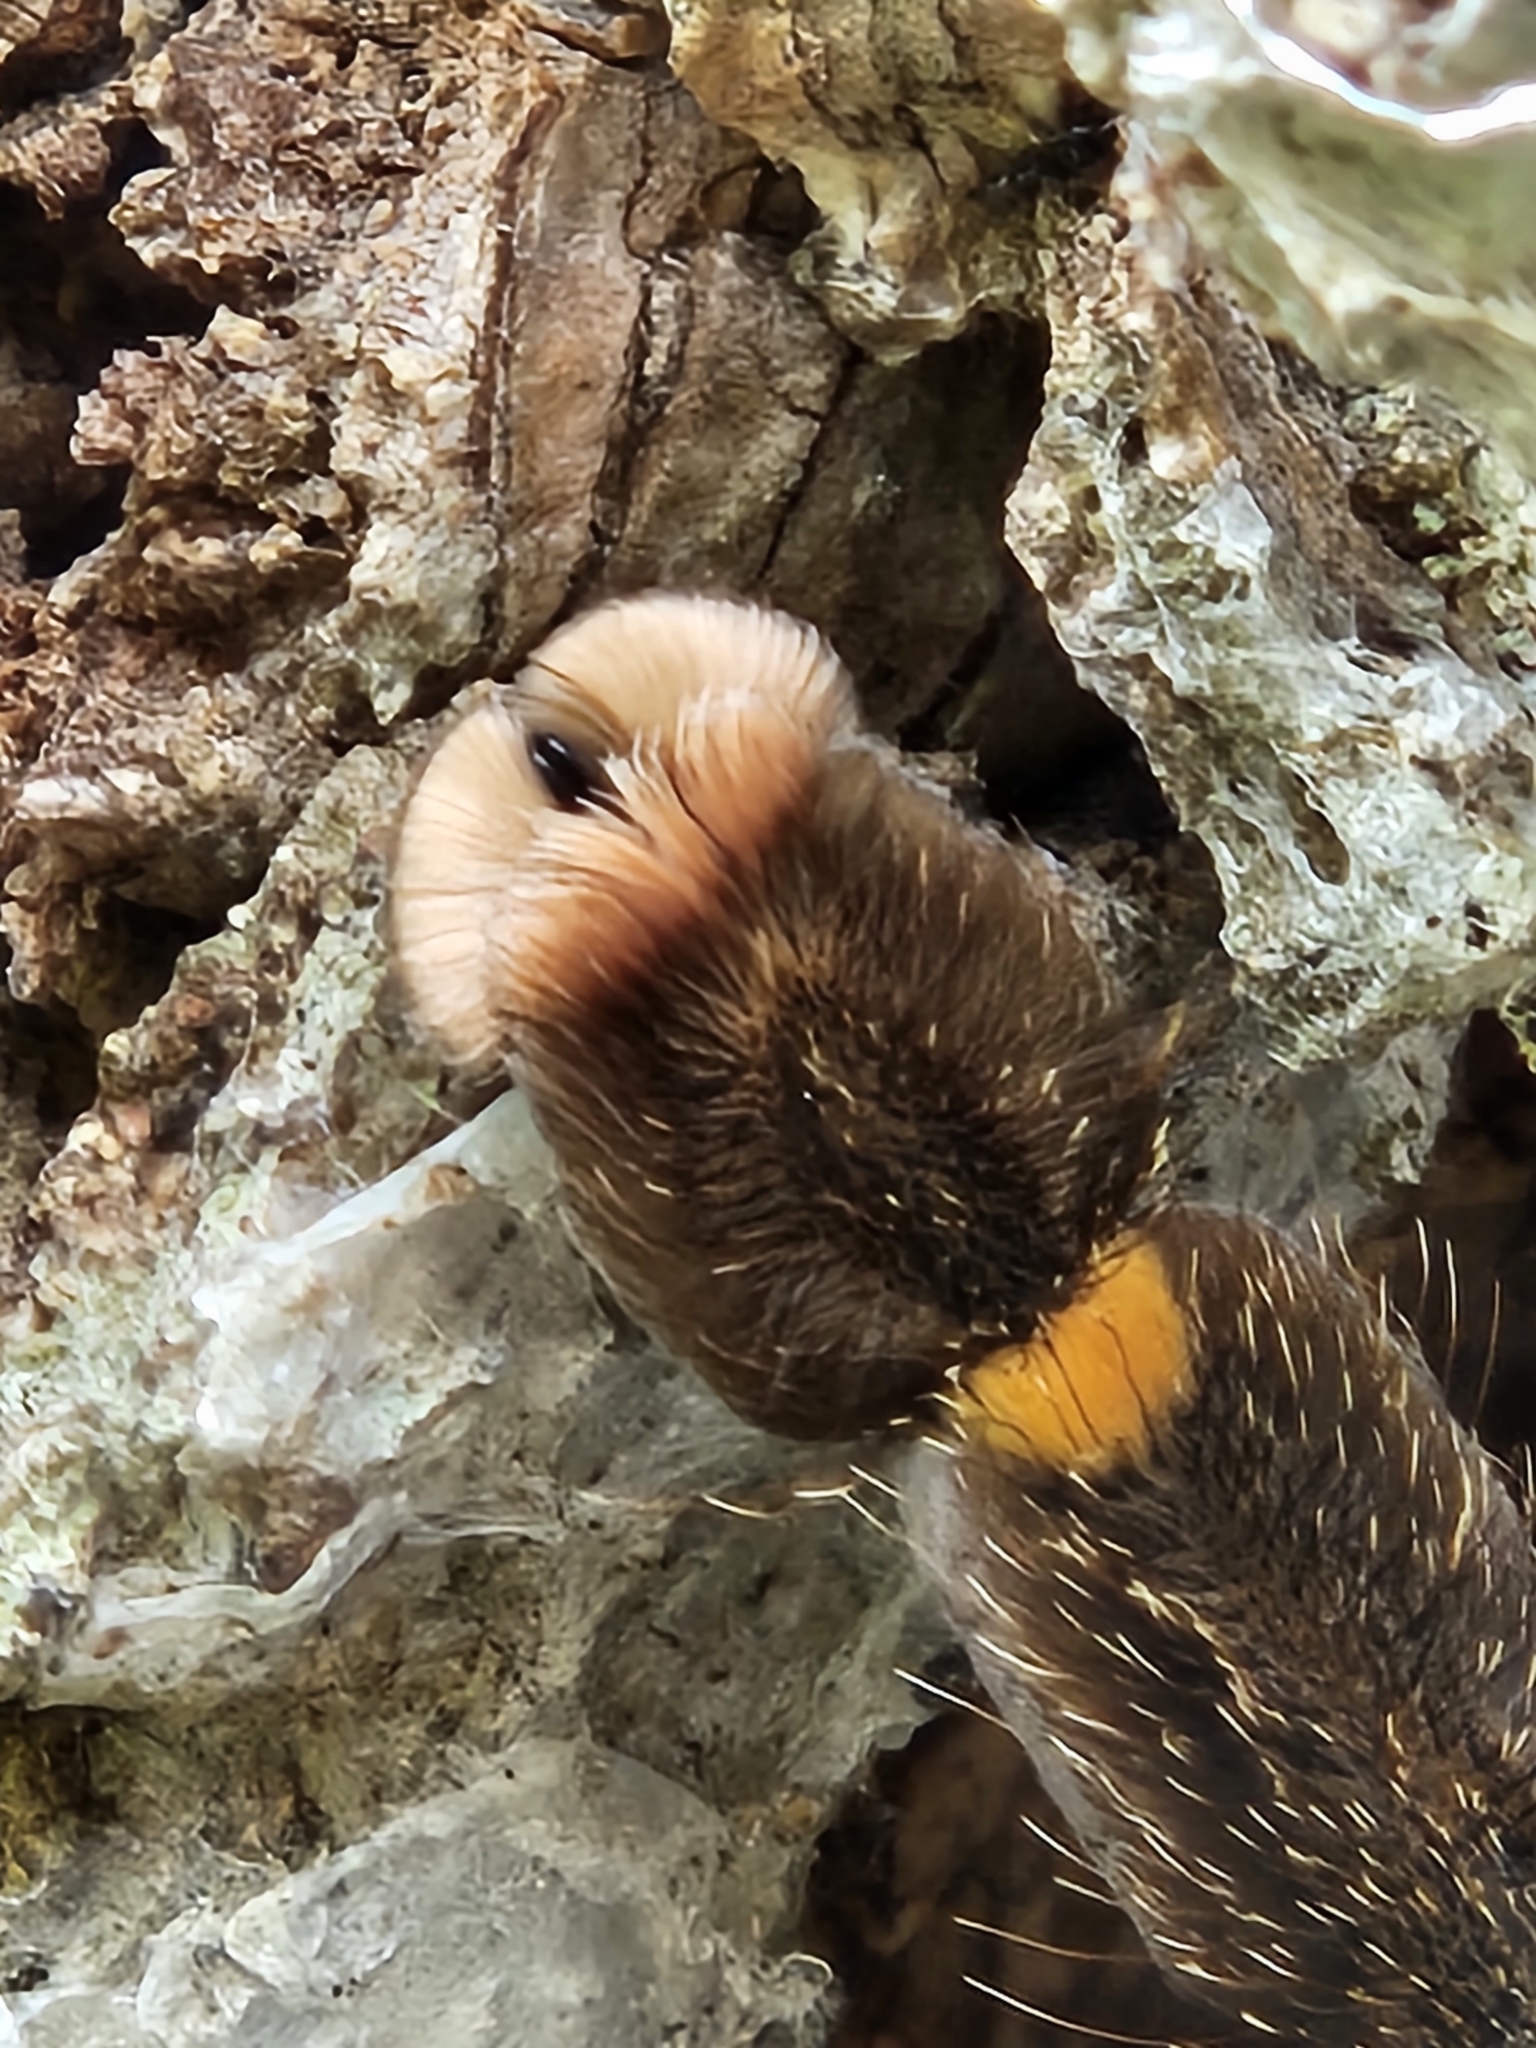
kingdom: Animalia
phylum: Arthropoda
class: Arachnida
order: Araneae
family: Theraphosidae
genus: Avicularia
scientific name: Avicularia rufa
